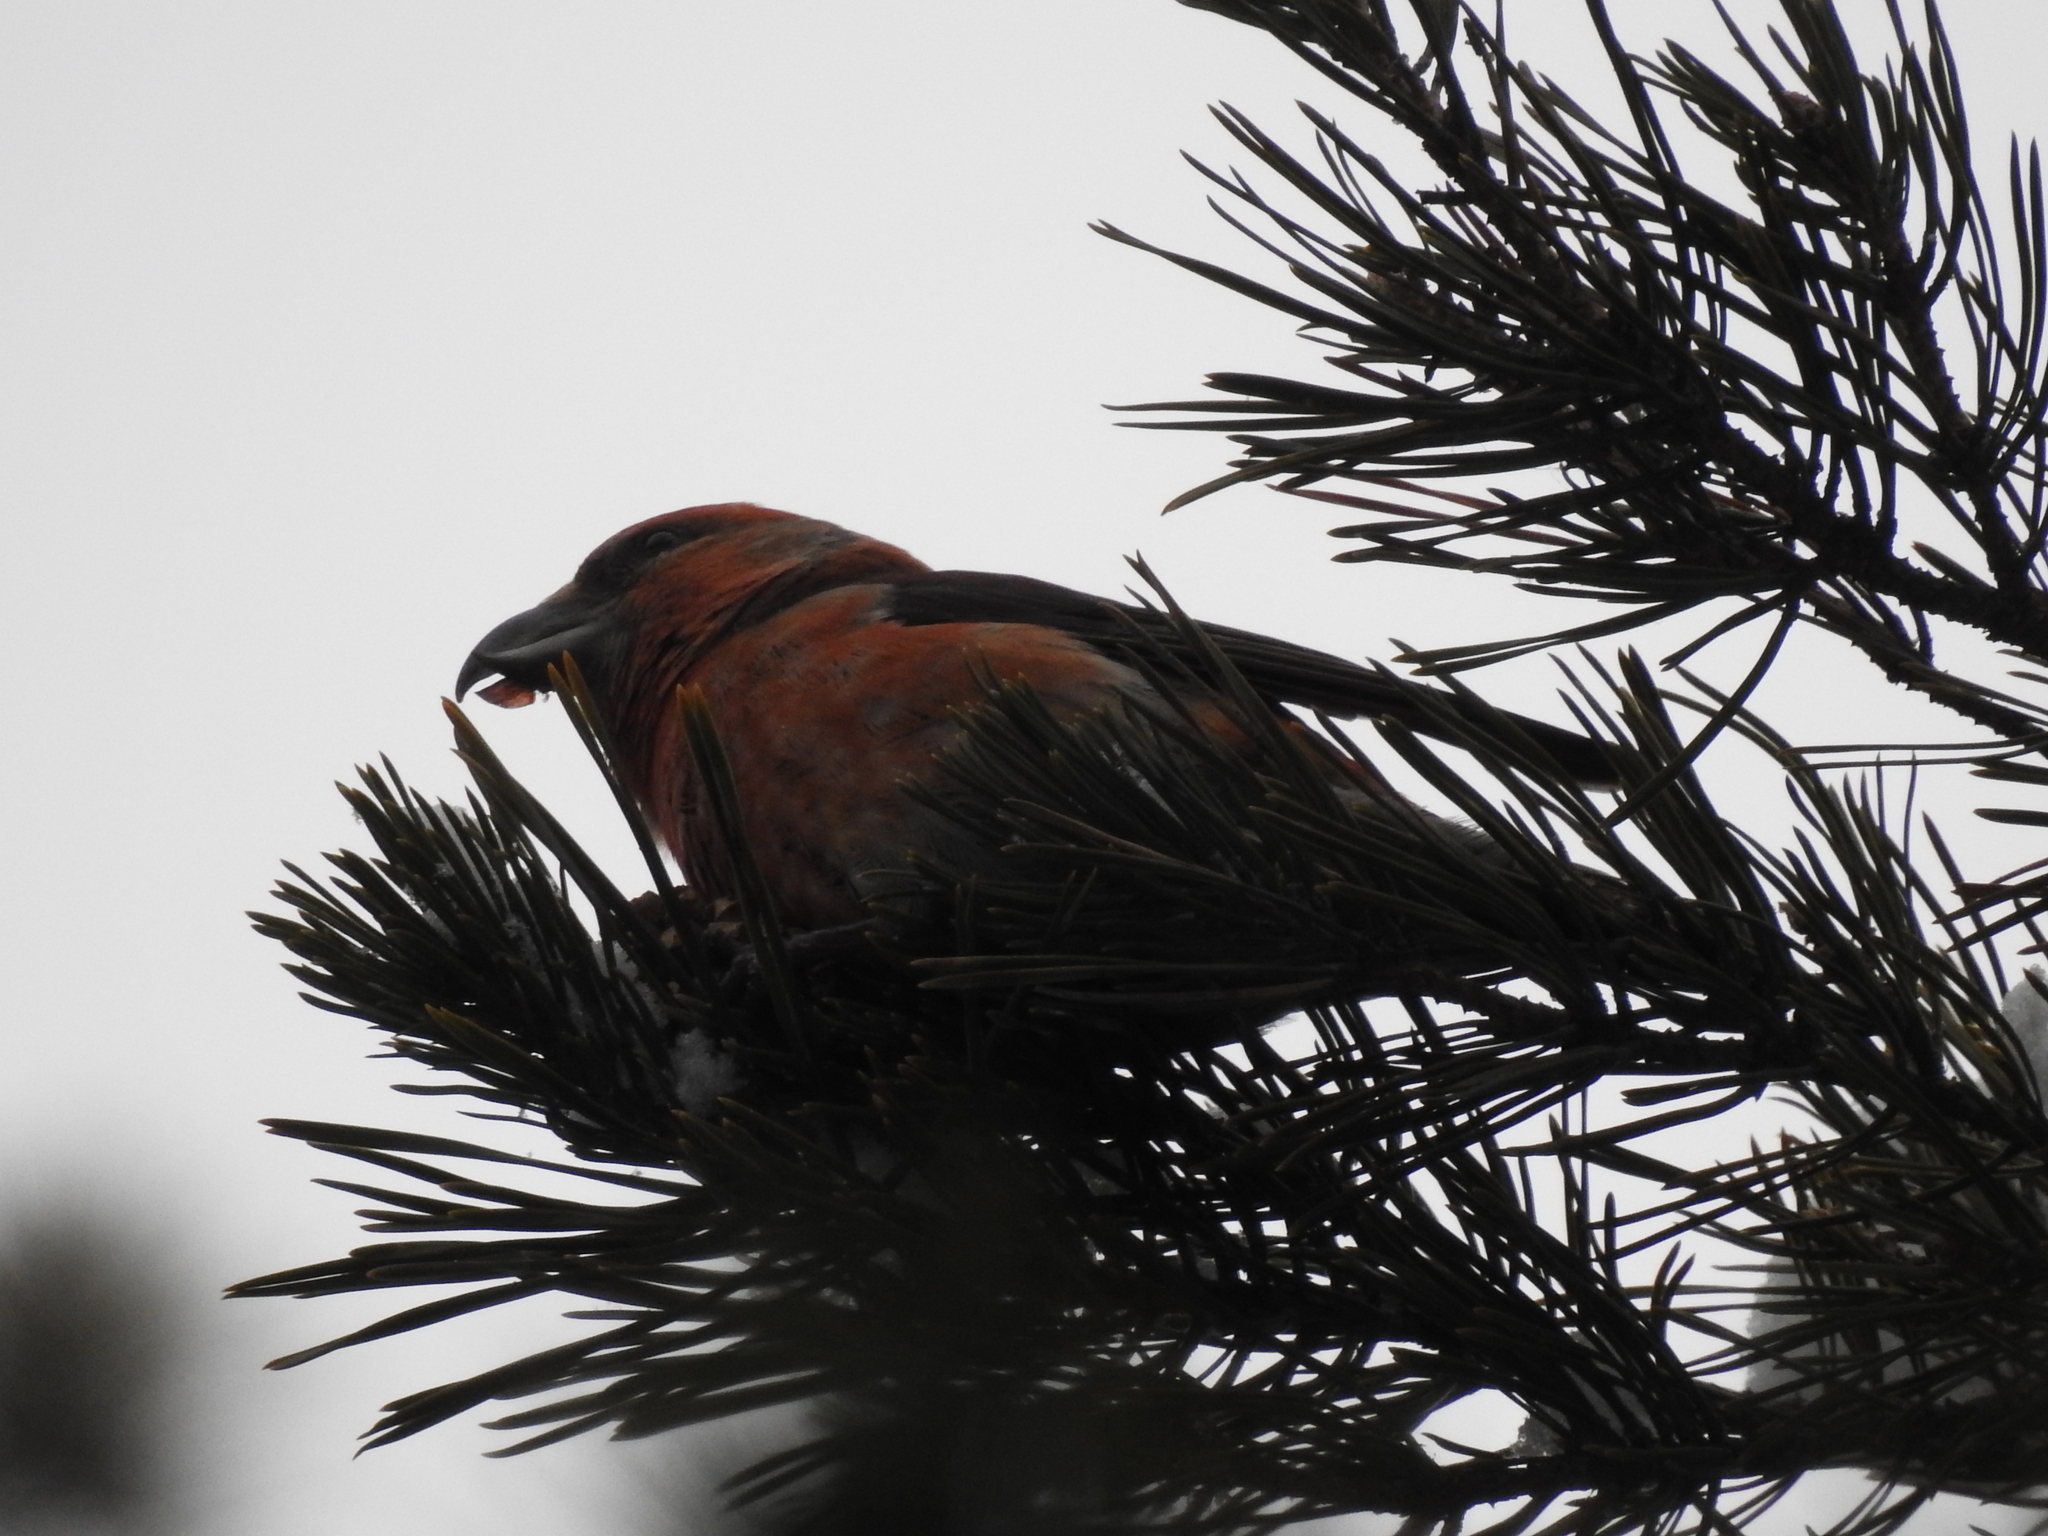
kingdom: Animalia
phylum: Chordata
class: Aves
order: Passeriformes
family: Fringillidae
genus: Loxia
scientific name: Loxia curvirostra
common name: Red crossbill
